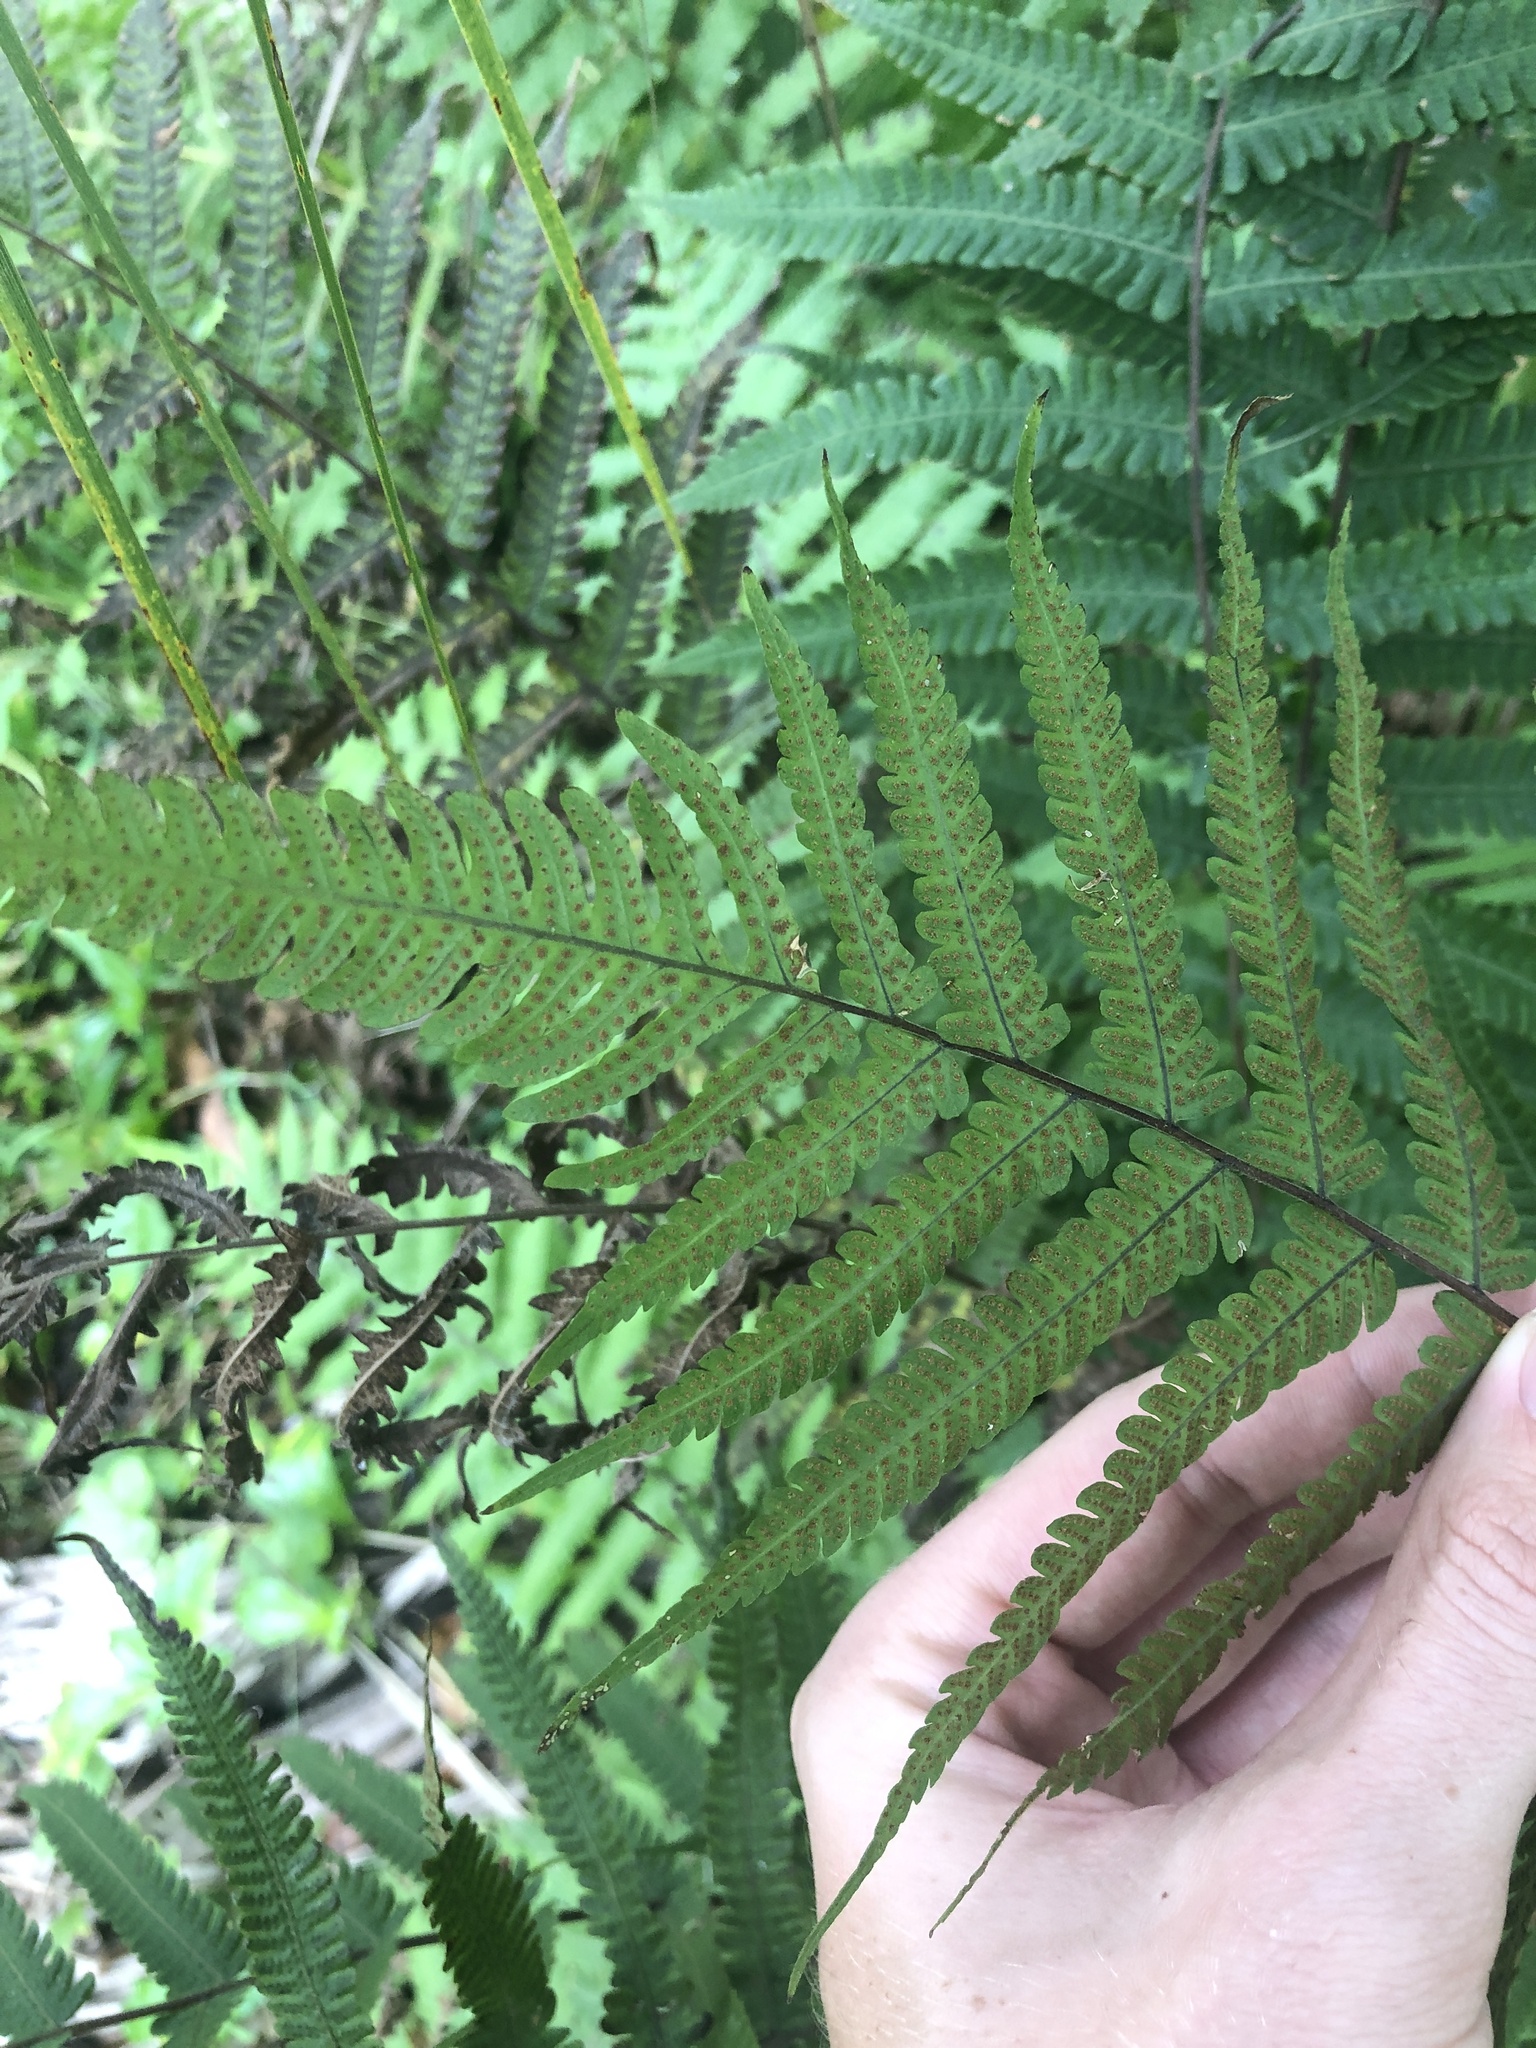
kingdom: Plantae
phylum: Tracheophyta
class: Polypodiopsida
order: Polypodiales
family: Thelypteridaceae
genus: Christella
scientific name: Christella dentata
